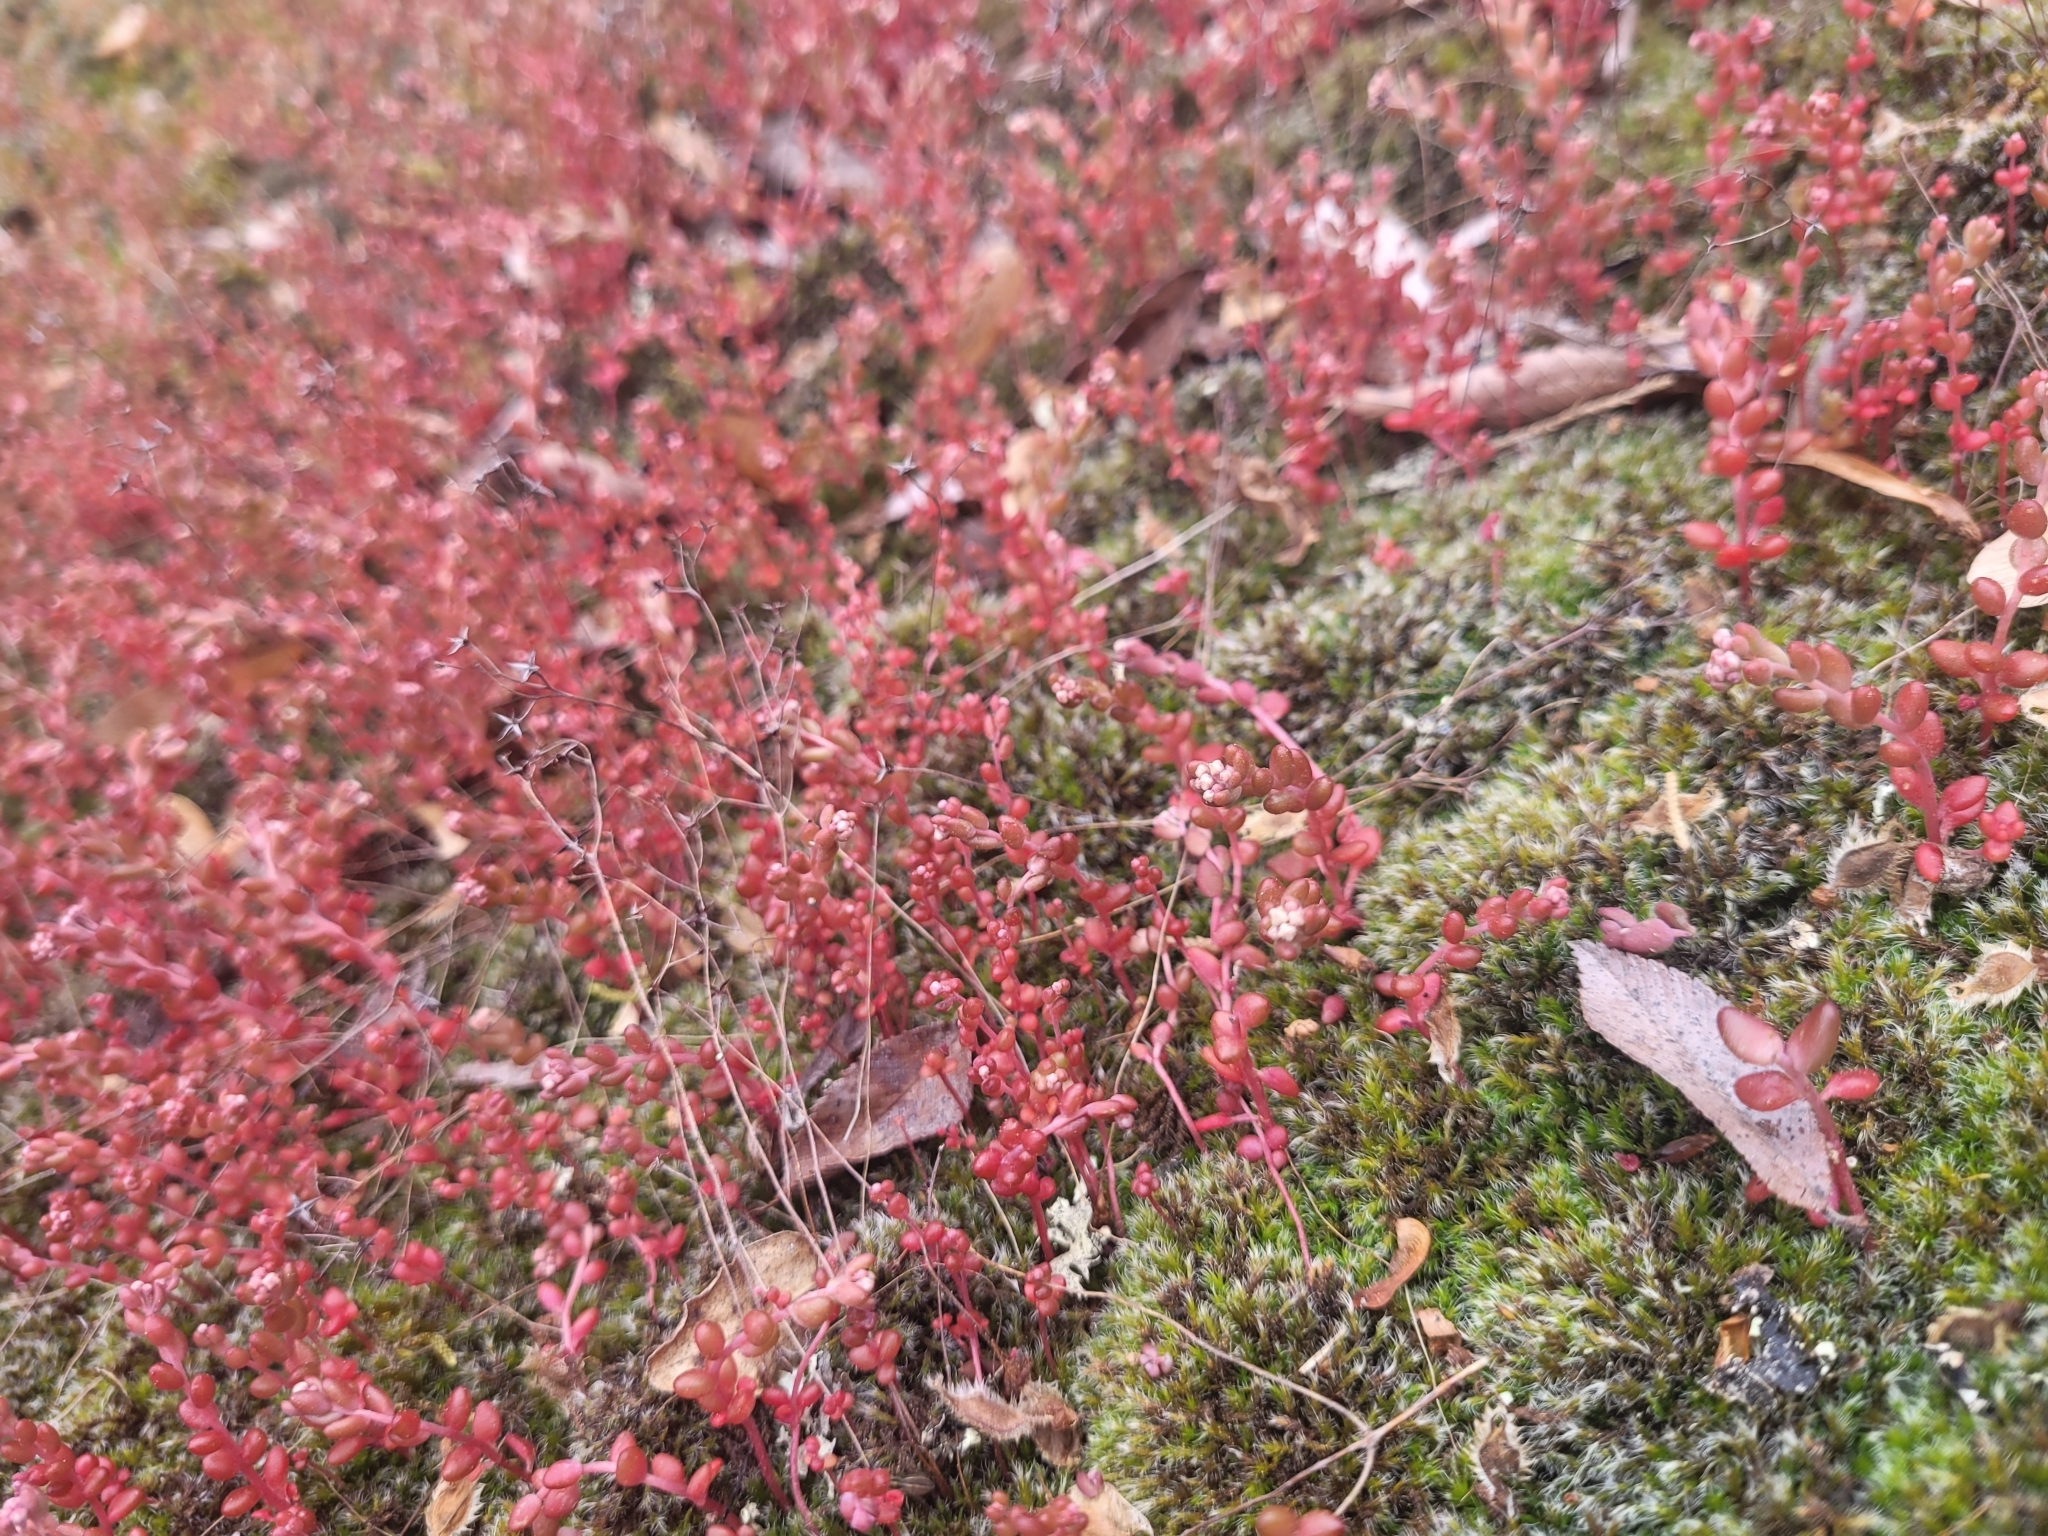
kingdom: Plantae
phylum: Tracheophyta
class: Magnoliopsida
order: Saxifragales
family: Crassulaceae
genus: Sedum
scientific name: Sedum smallii
